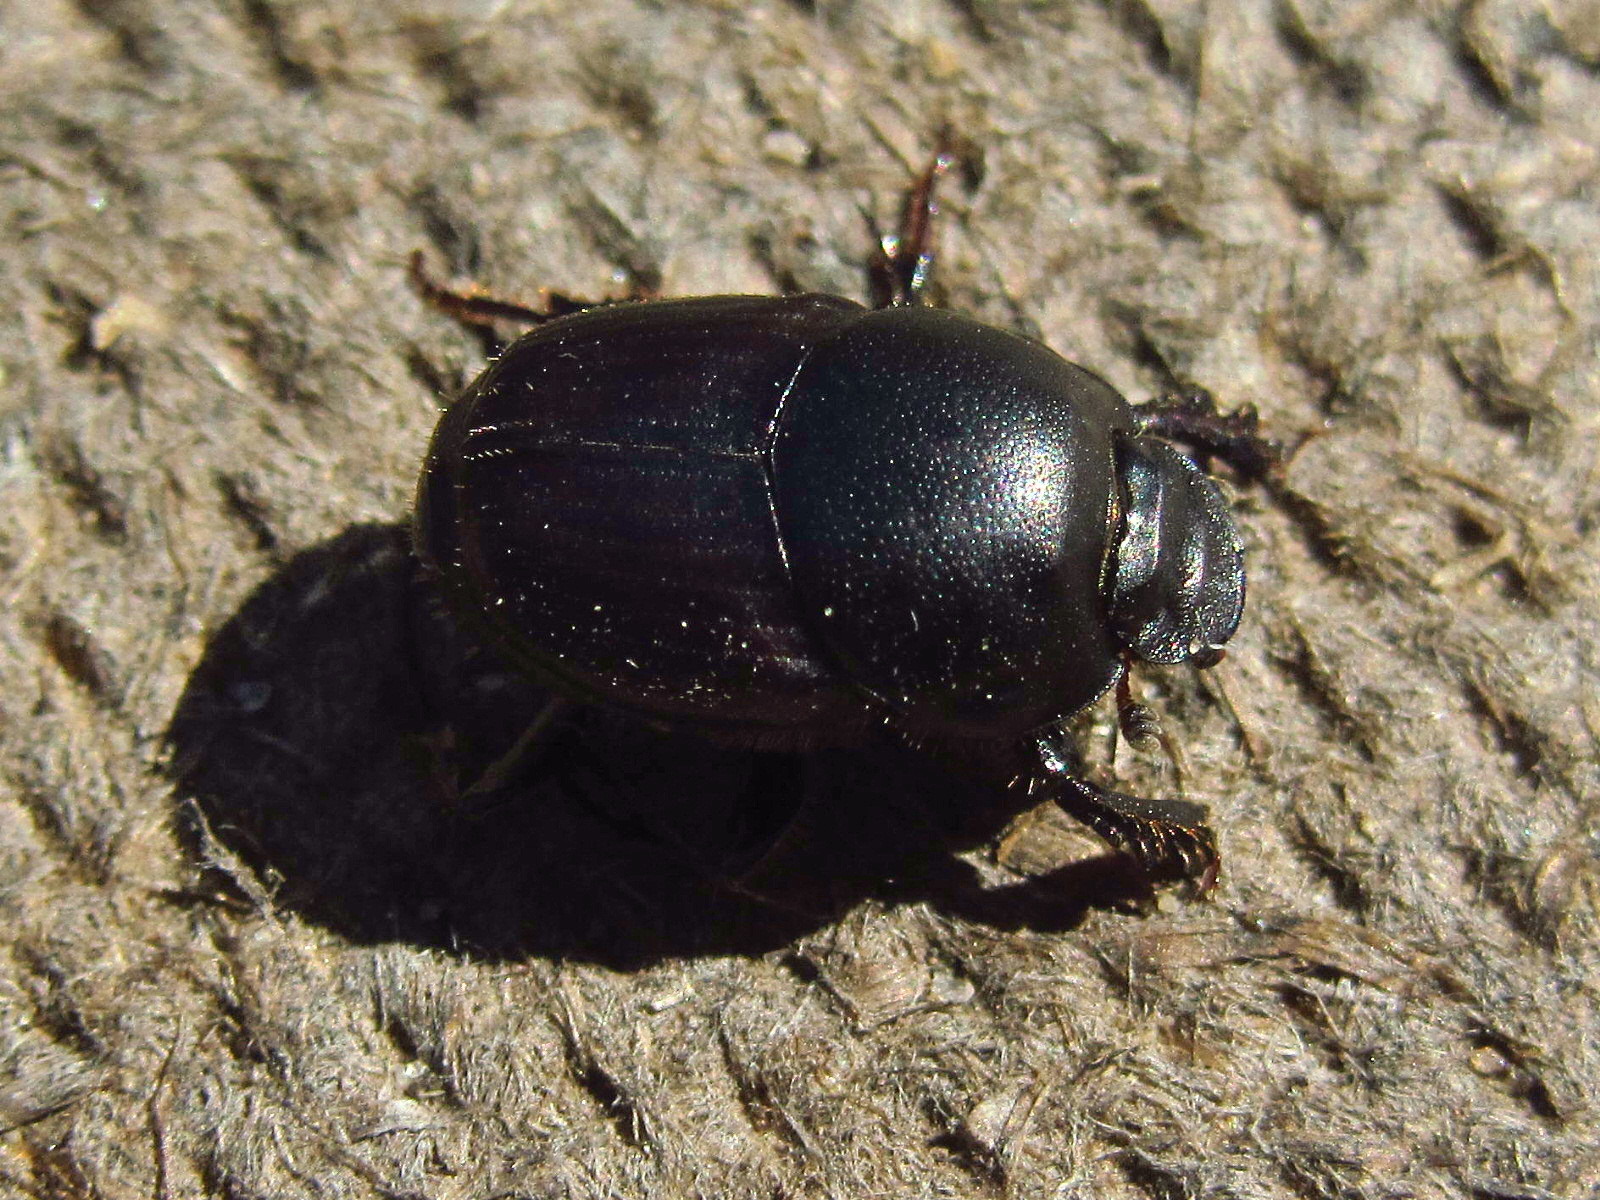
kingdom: Animalia
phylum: Arthropoda
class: Insecta
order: Coleoptera
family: Scarabaeidae
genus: Onthophagus
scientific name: Onthophagus taurus
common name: Bullhorned dung beetle
